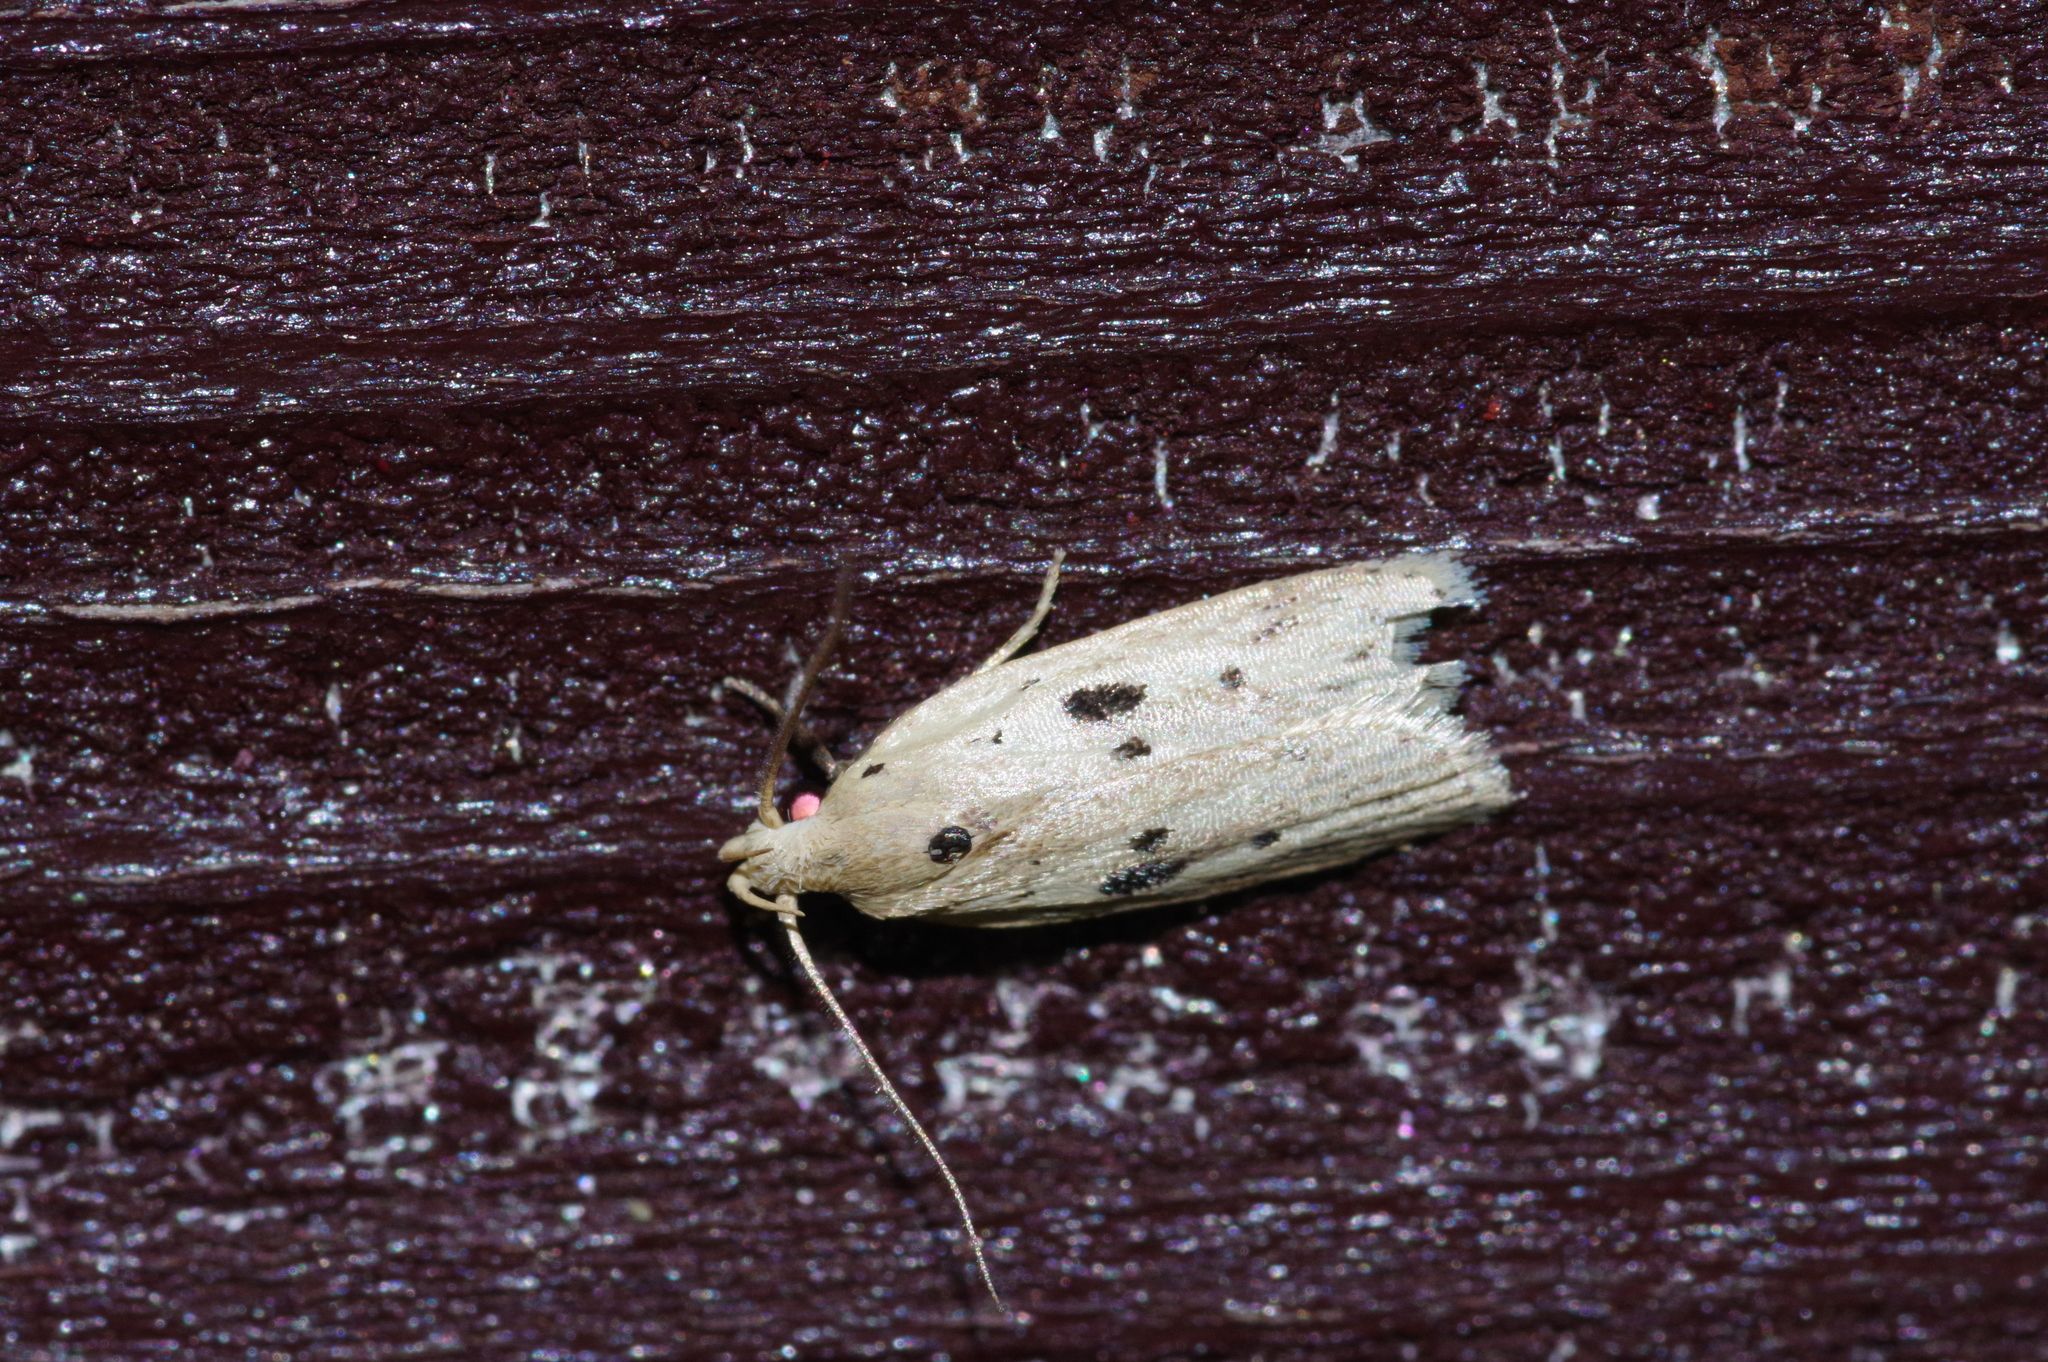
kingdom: Animalia
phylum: Arthropoda
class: Insecta
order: Lepidoptera
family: Peleopodidae
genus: Scythropiodes
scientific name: Scythropiodes issikii
